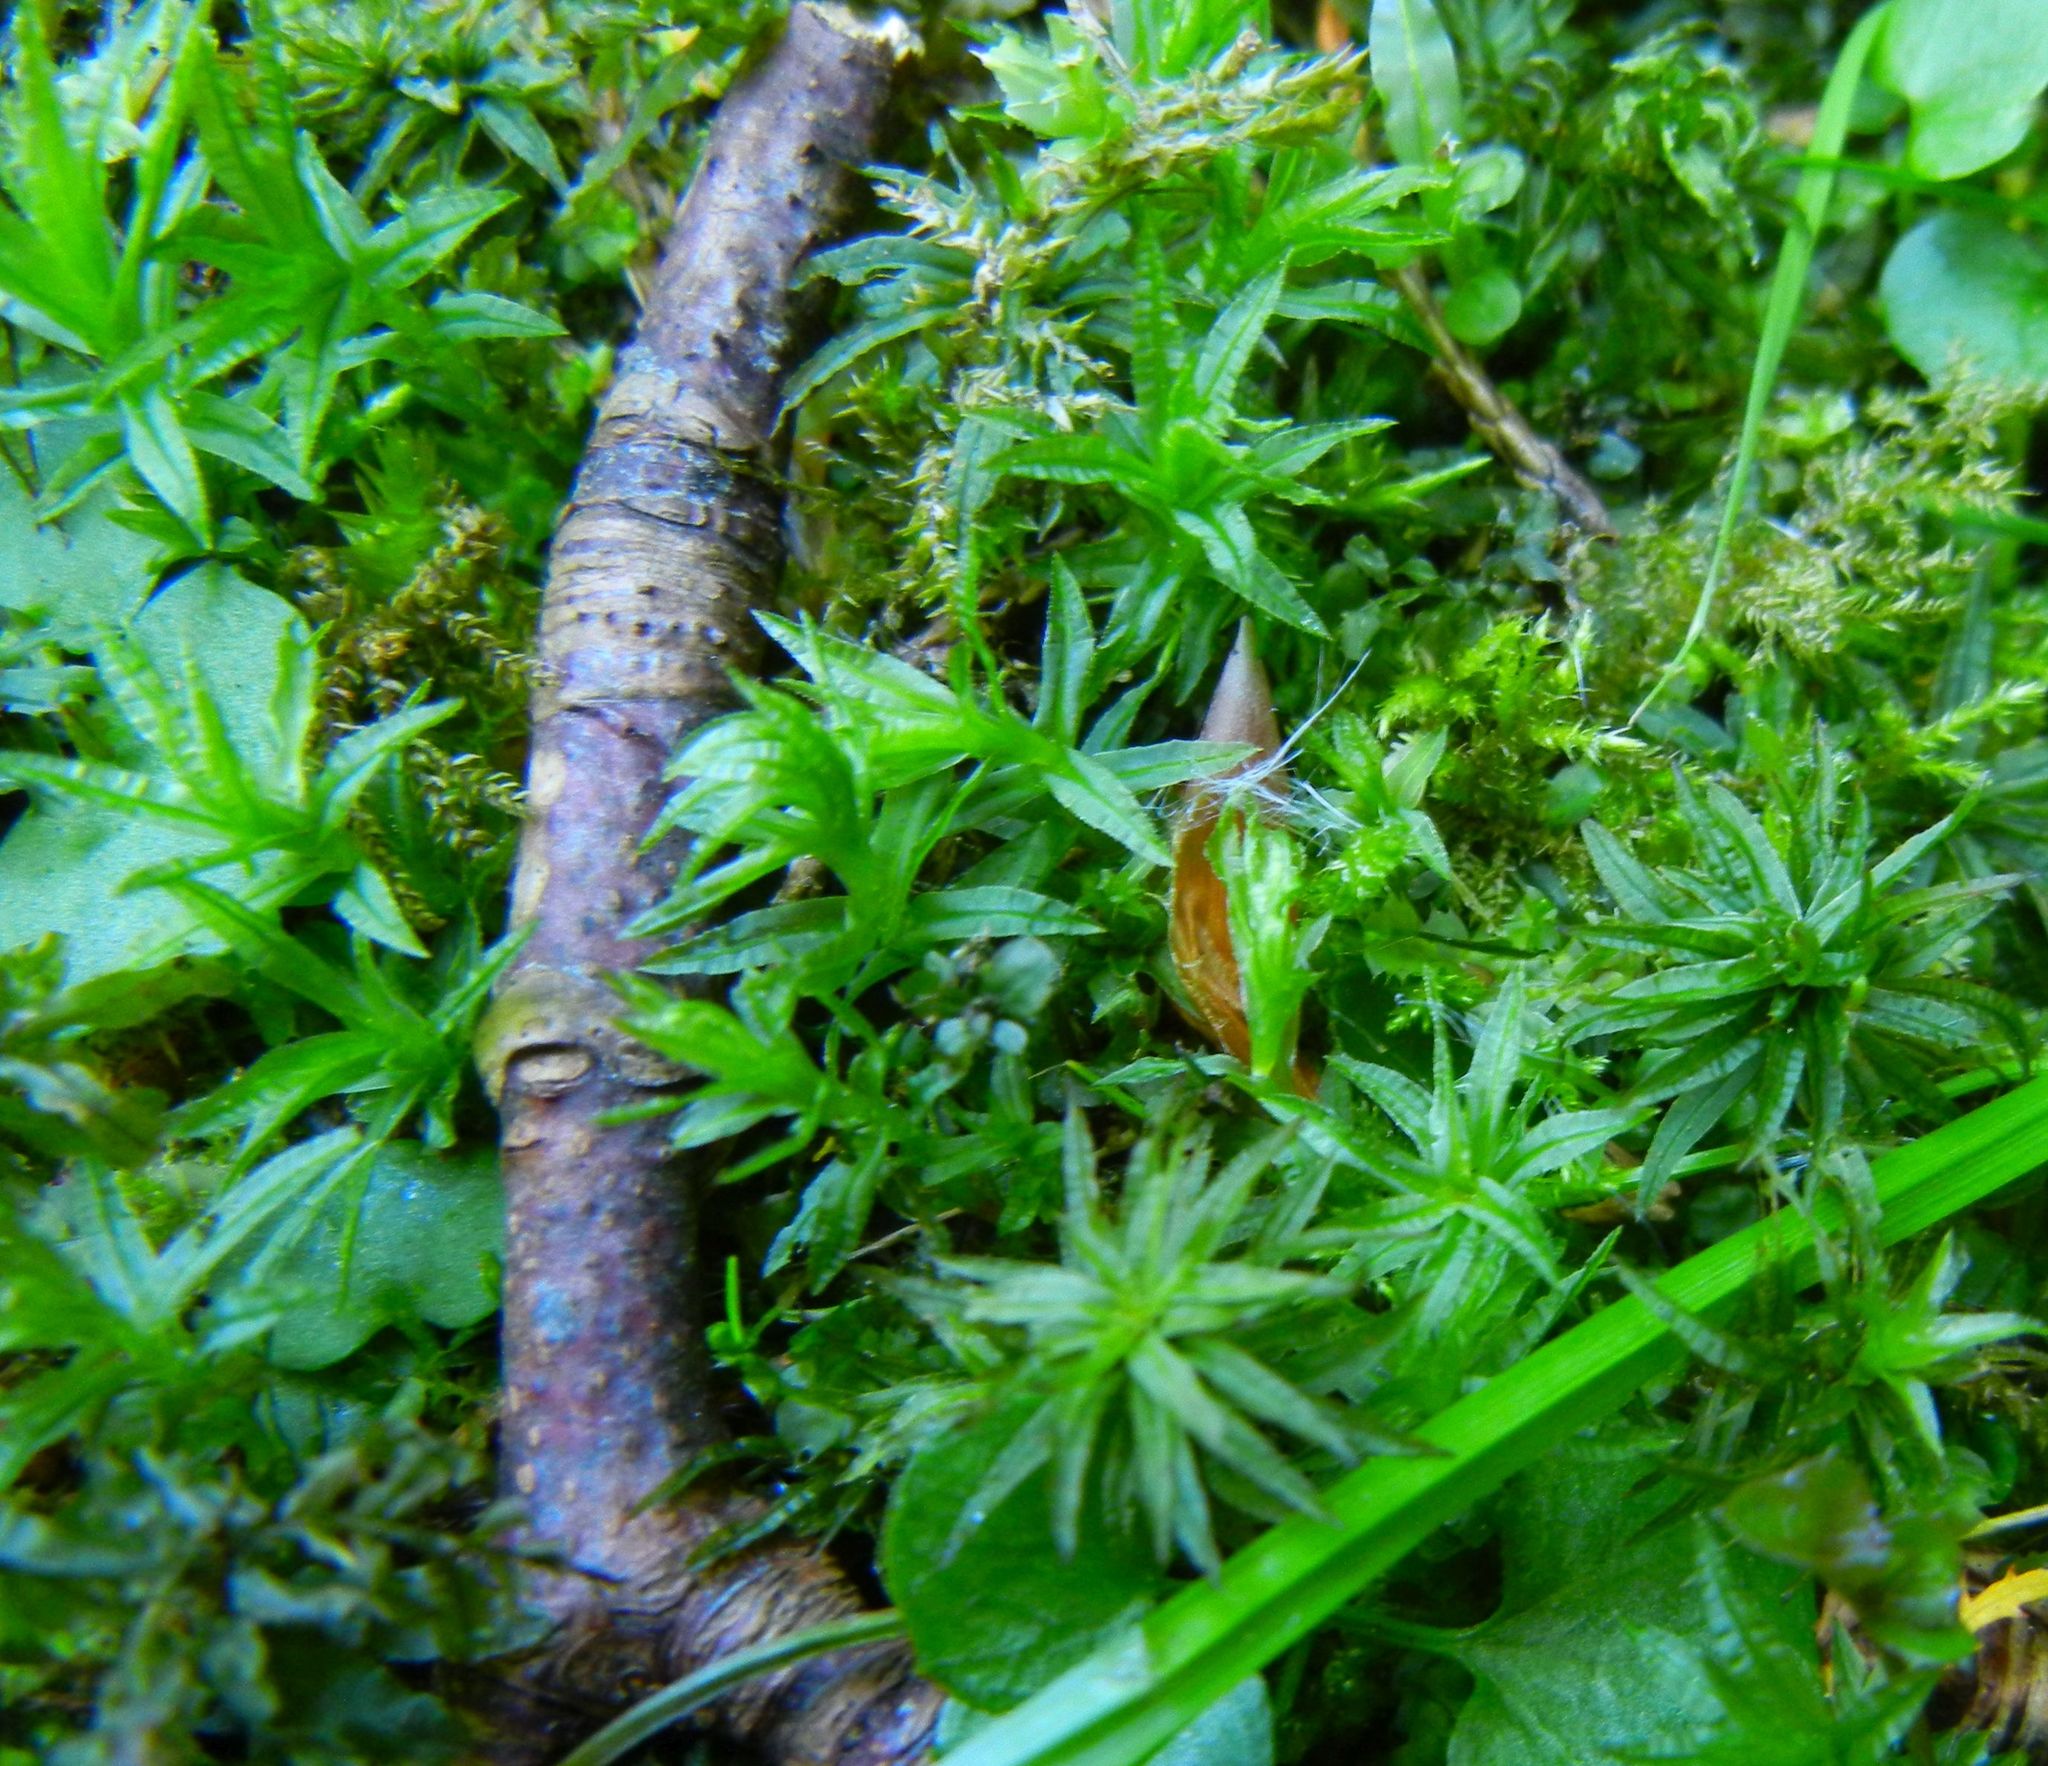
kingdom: Plantae
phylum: Bryophyta
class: Polytrichopsida
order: Polytrichales
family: Polytrichaceae
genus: Atrichum
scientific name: Atrichum undulatum
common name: Common smoothcap
